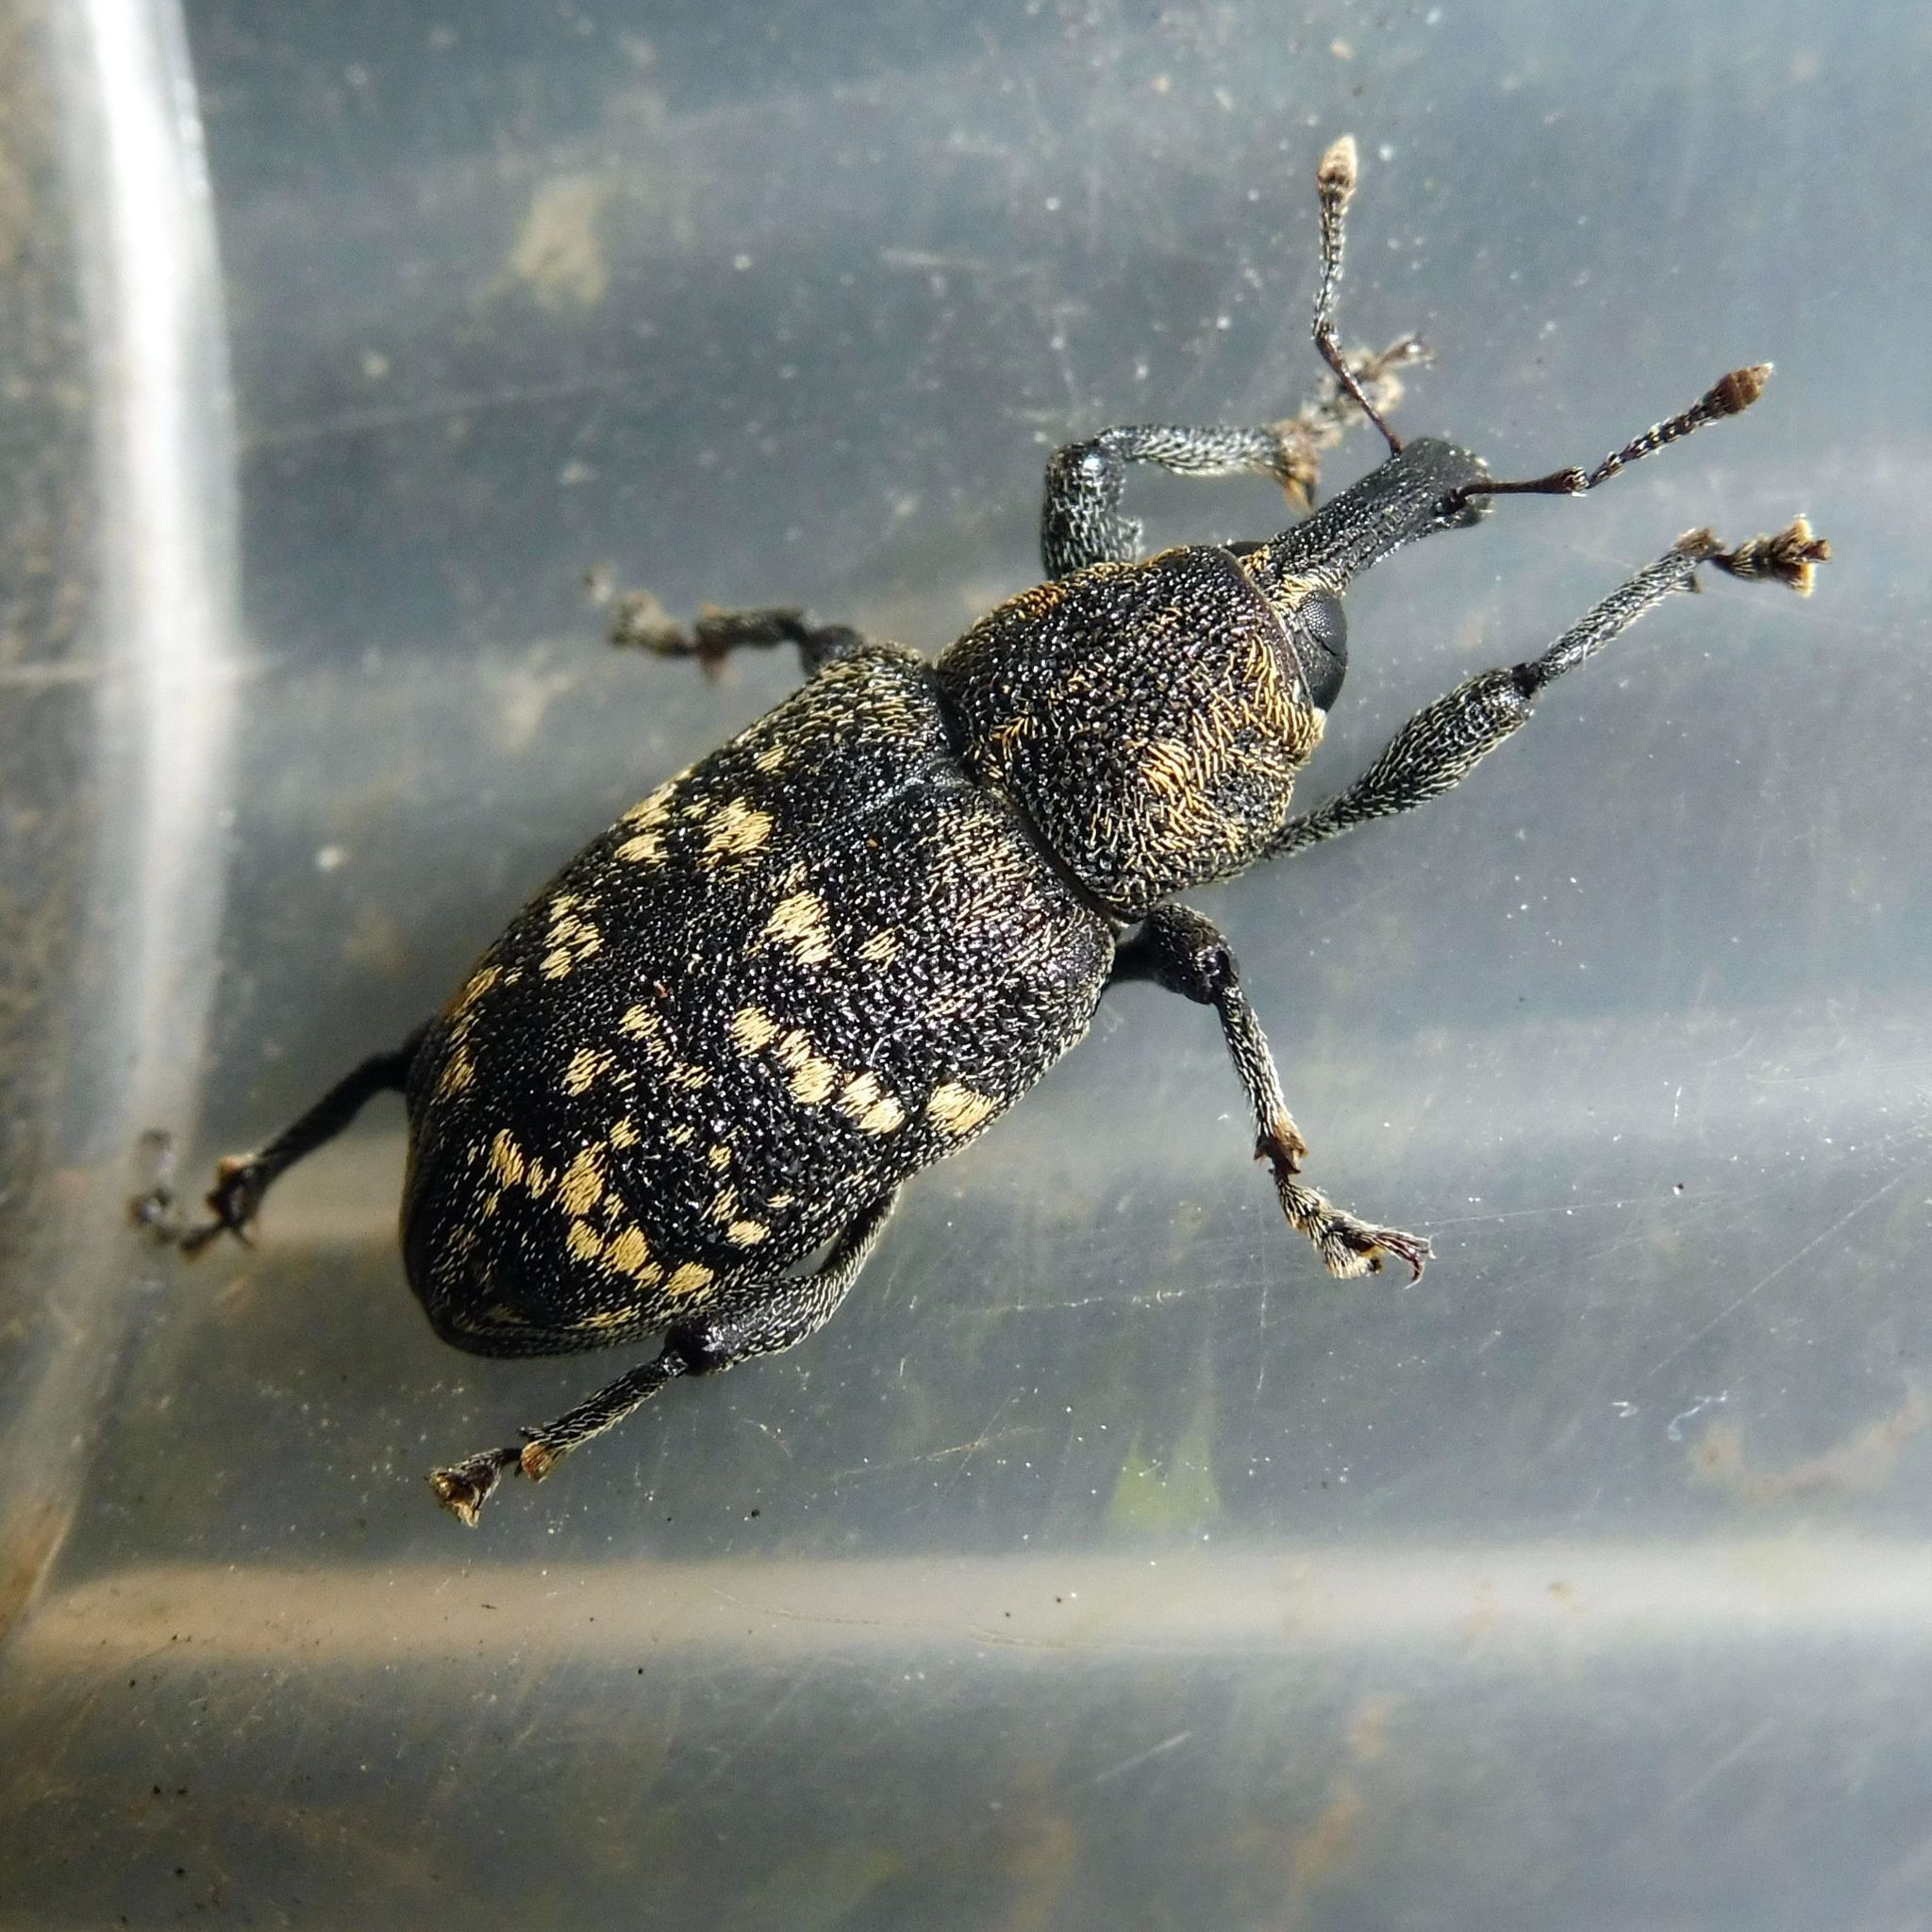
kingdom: Animalia
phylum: Arthropoda
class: Insecta
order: Coleoptera
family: Curculionidae
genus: Hylobius
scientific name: Hylobius abietis
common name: Large pine weevil
